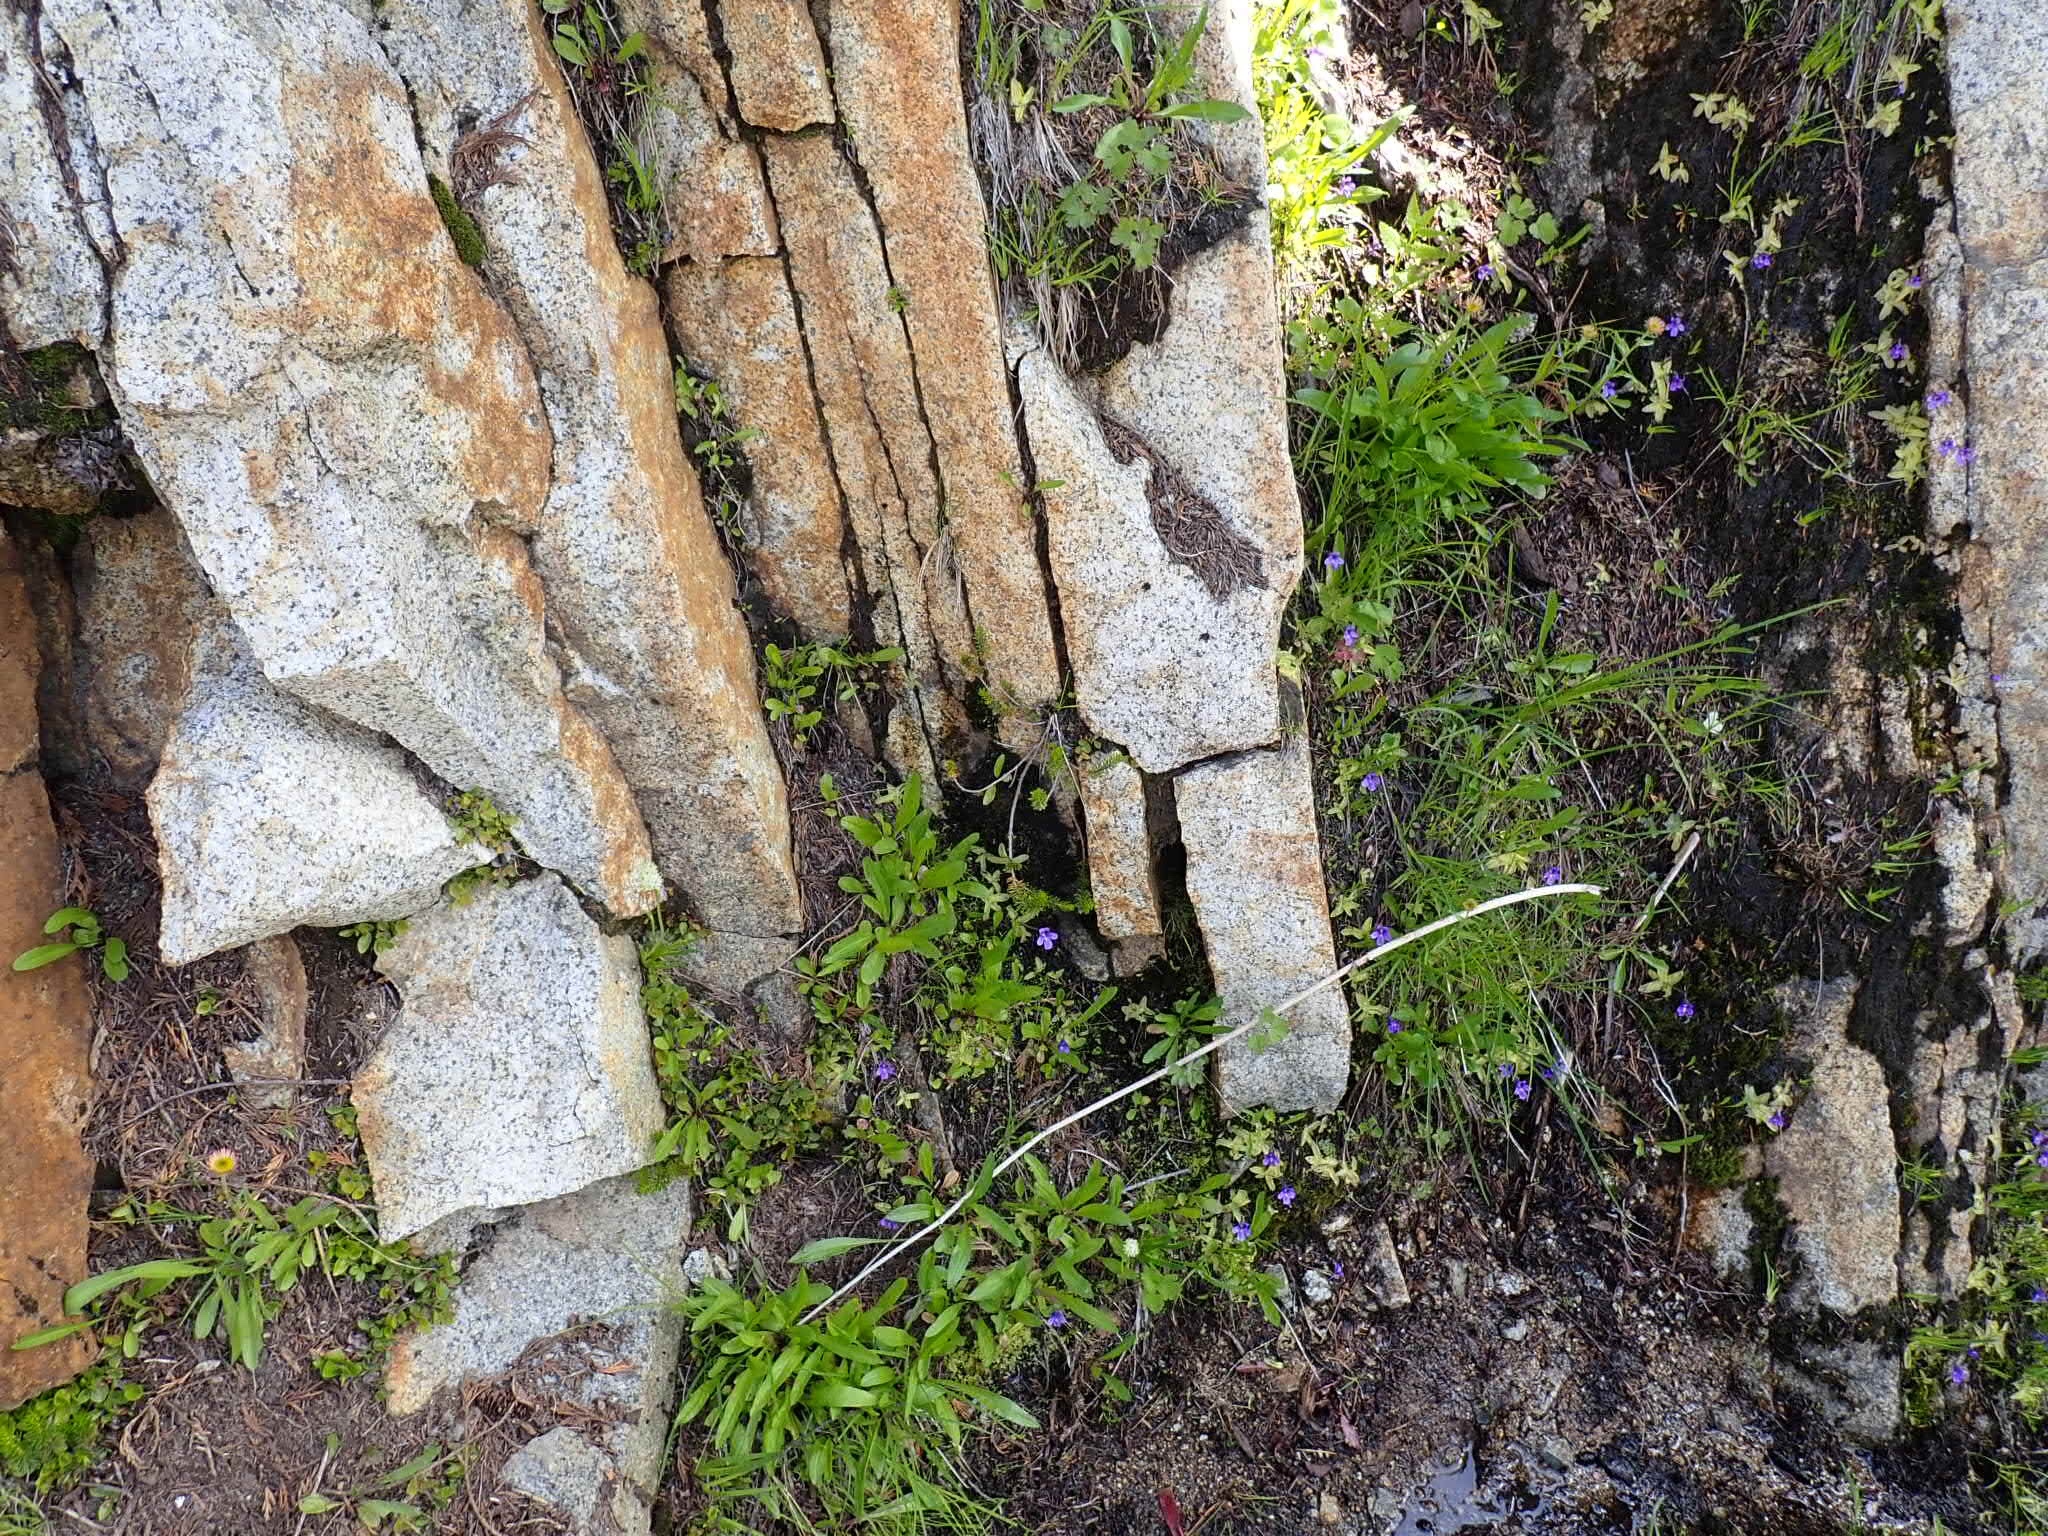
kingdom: Plantae
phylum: Tracheophyta
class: Magnoliopsida
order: Lamiales
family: Lentibulariaceae
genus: Pinguicula
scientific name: Pinguicula vulgaris
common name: Common butterwort
